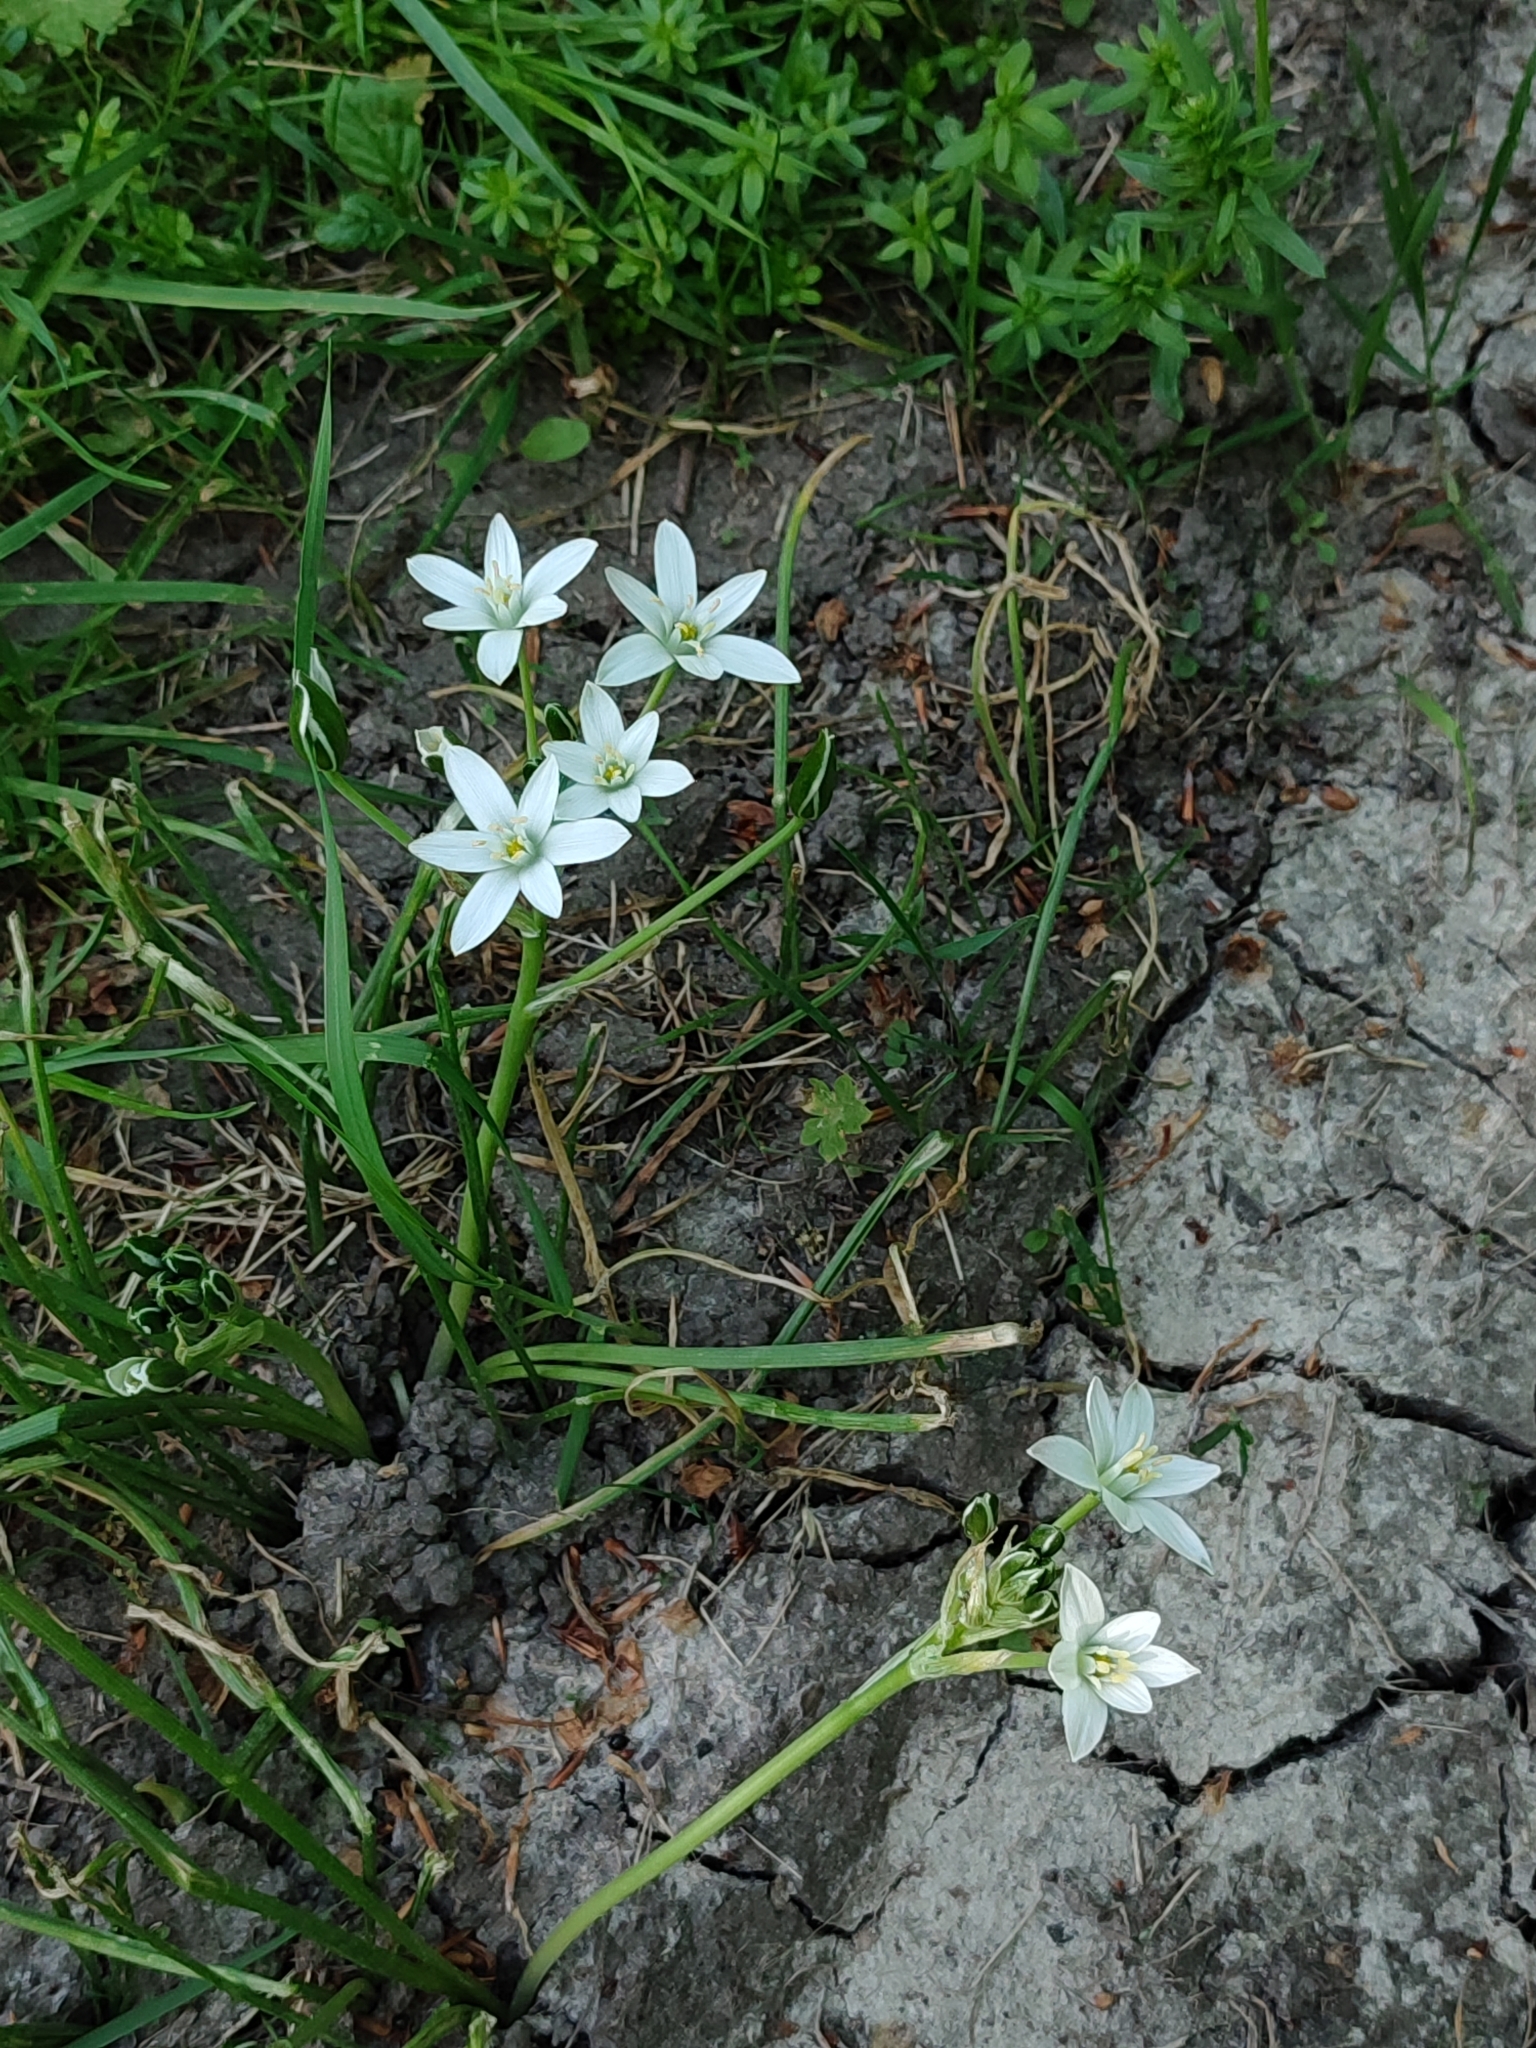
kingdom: Plantae
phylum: Tracheophyta
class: Liliopsida
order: Asparagales
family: Asparagaceae
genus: Ornithogalum
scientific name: Ornithogalum umbellatum
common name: Garden star-of-bethlehem
